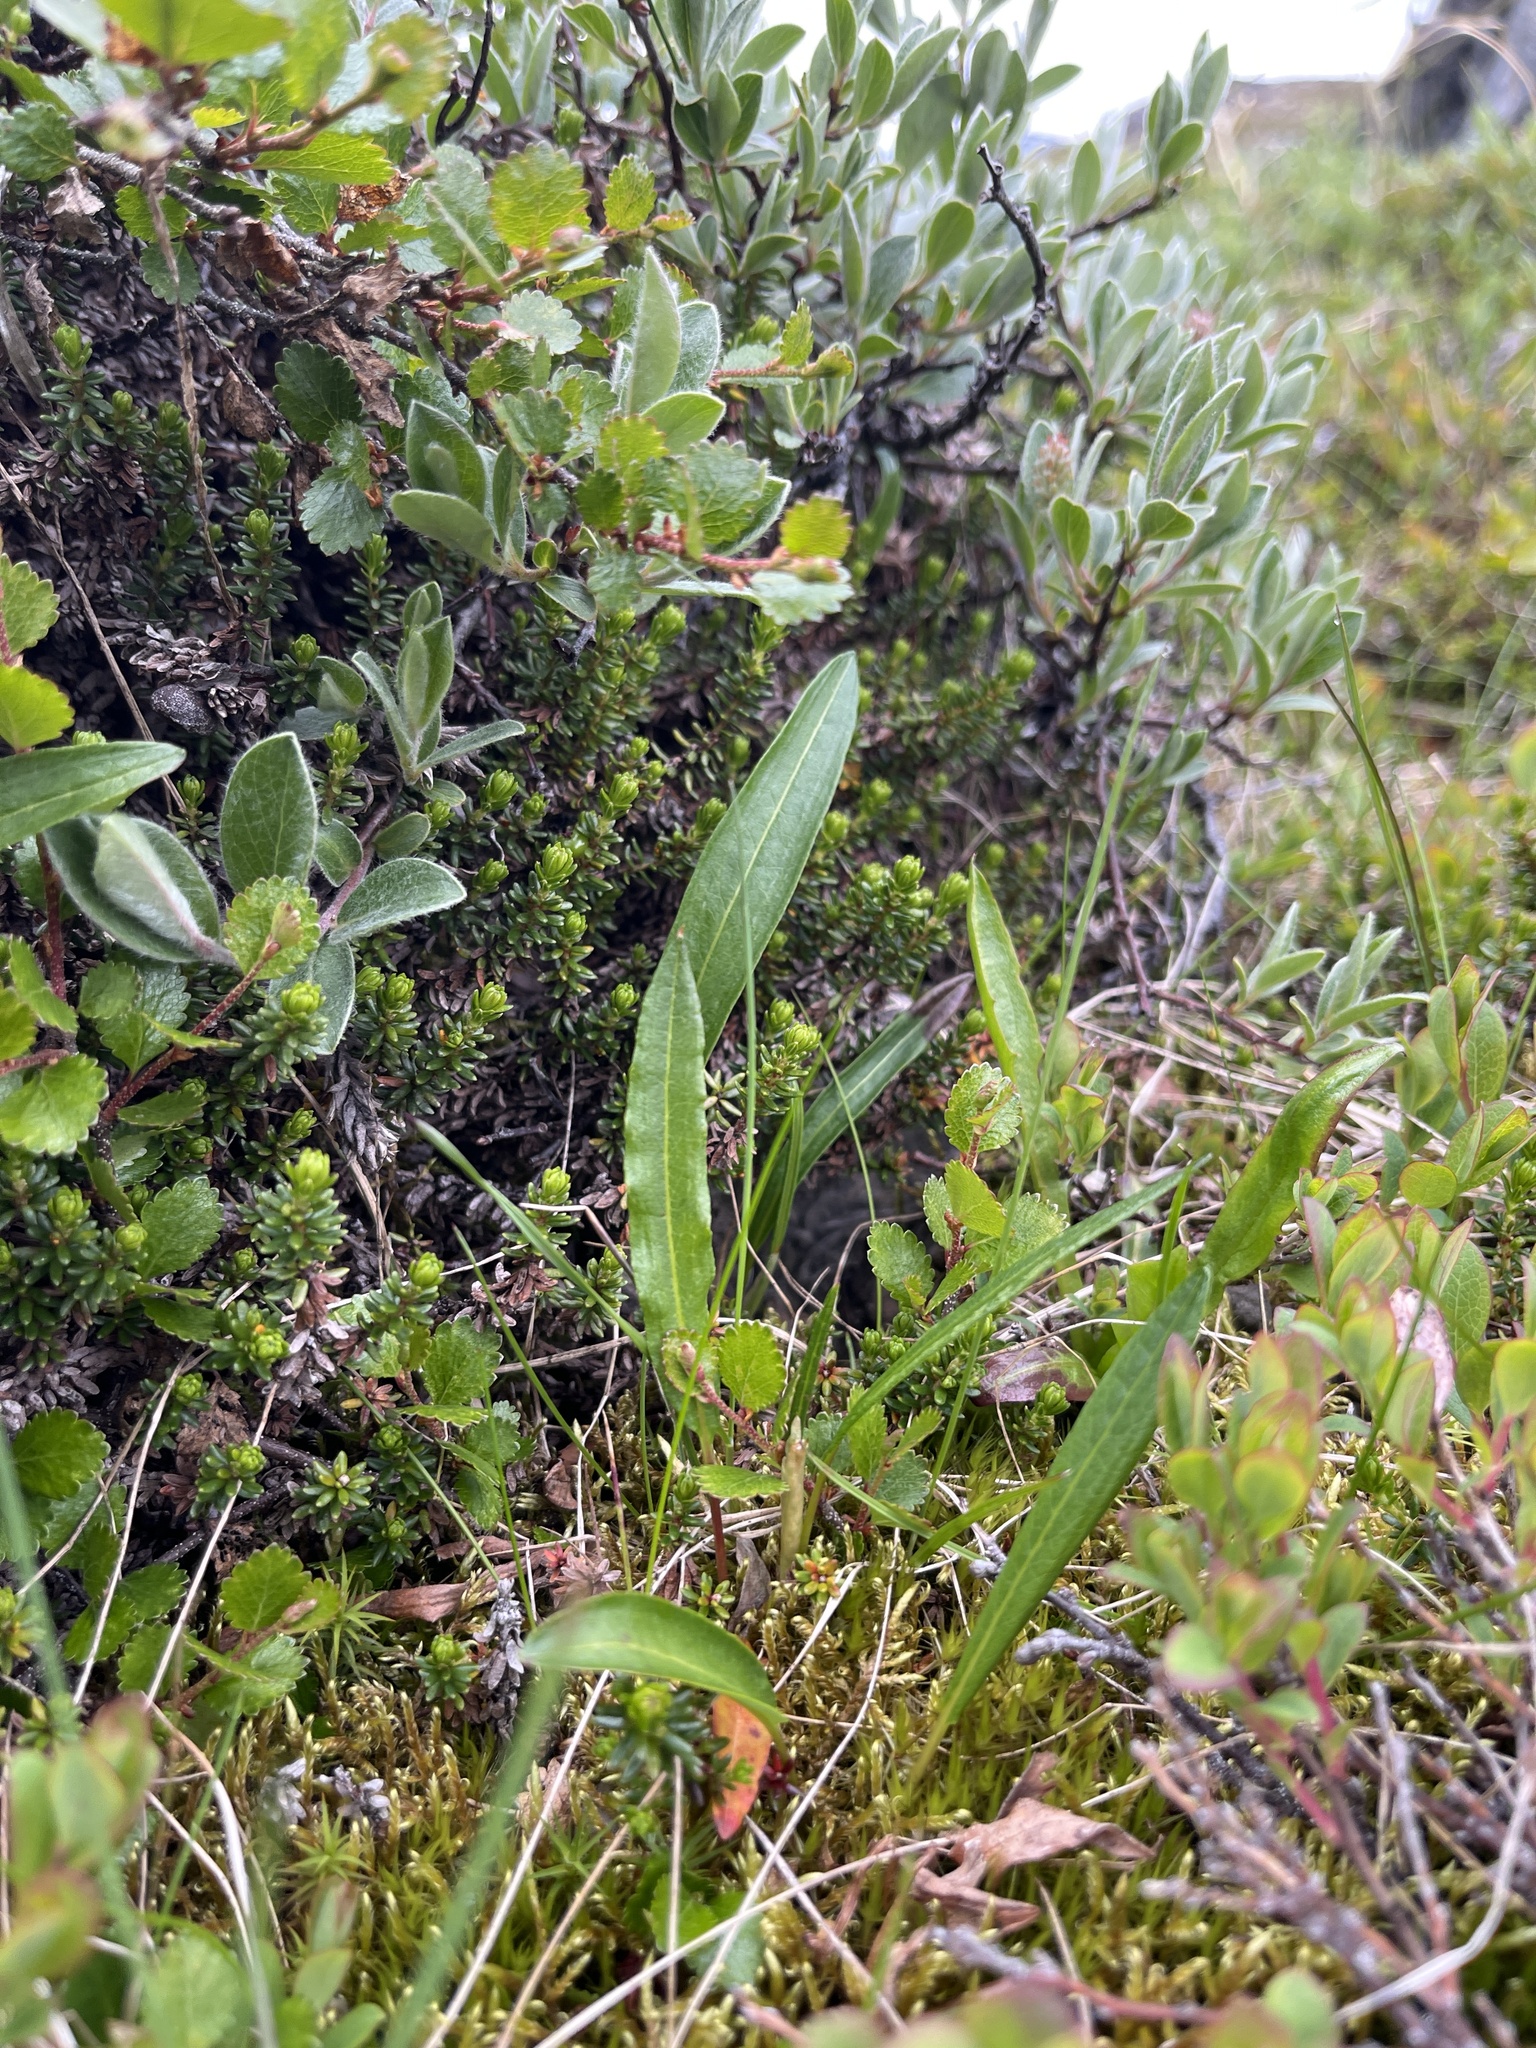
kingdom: Plantae
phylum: Tracheophyta
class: Magnoliopsida
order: Caryophyllales
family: Polygonaceae
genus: Bistorta
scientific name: Bistorta vivipara
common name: Alpine bistort
